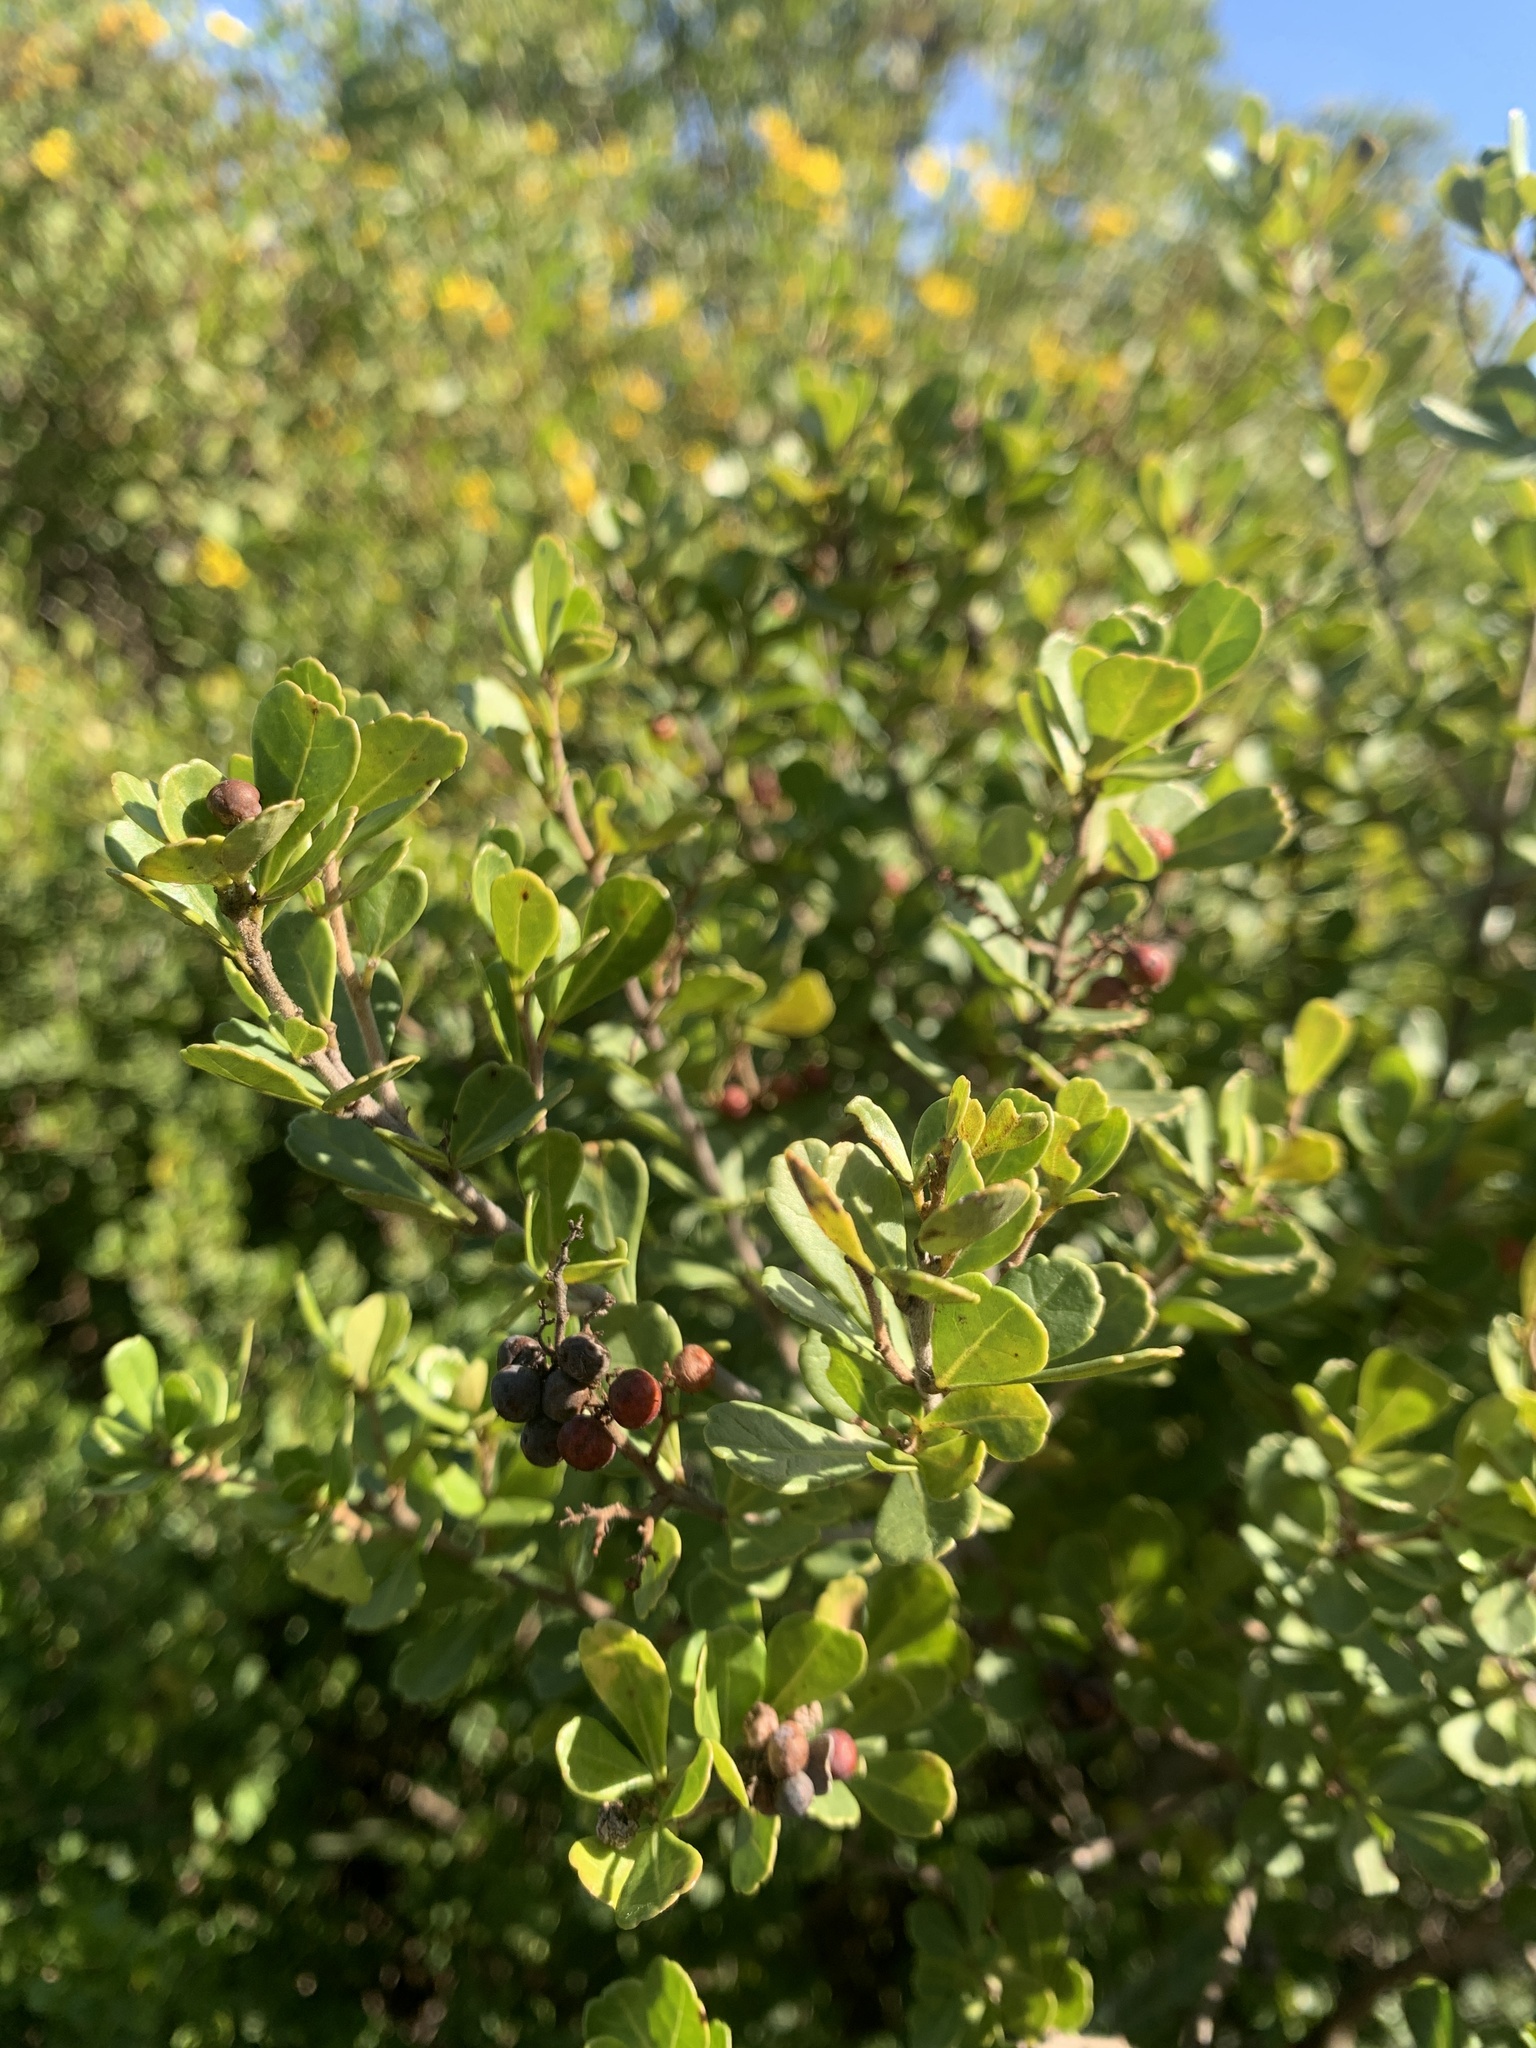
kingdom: Plantae
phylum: Tracheophyta
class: Magnoliopsida
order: Sapindales
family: Anacardiaceae
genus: Searsia
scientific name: Searsia crenata
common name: Crowberry
